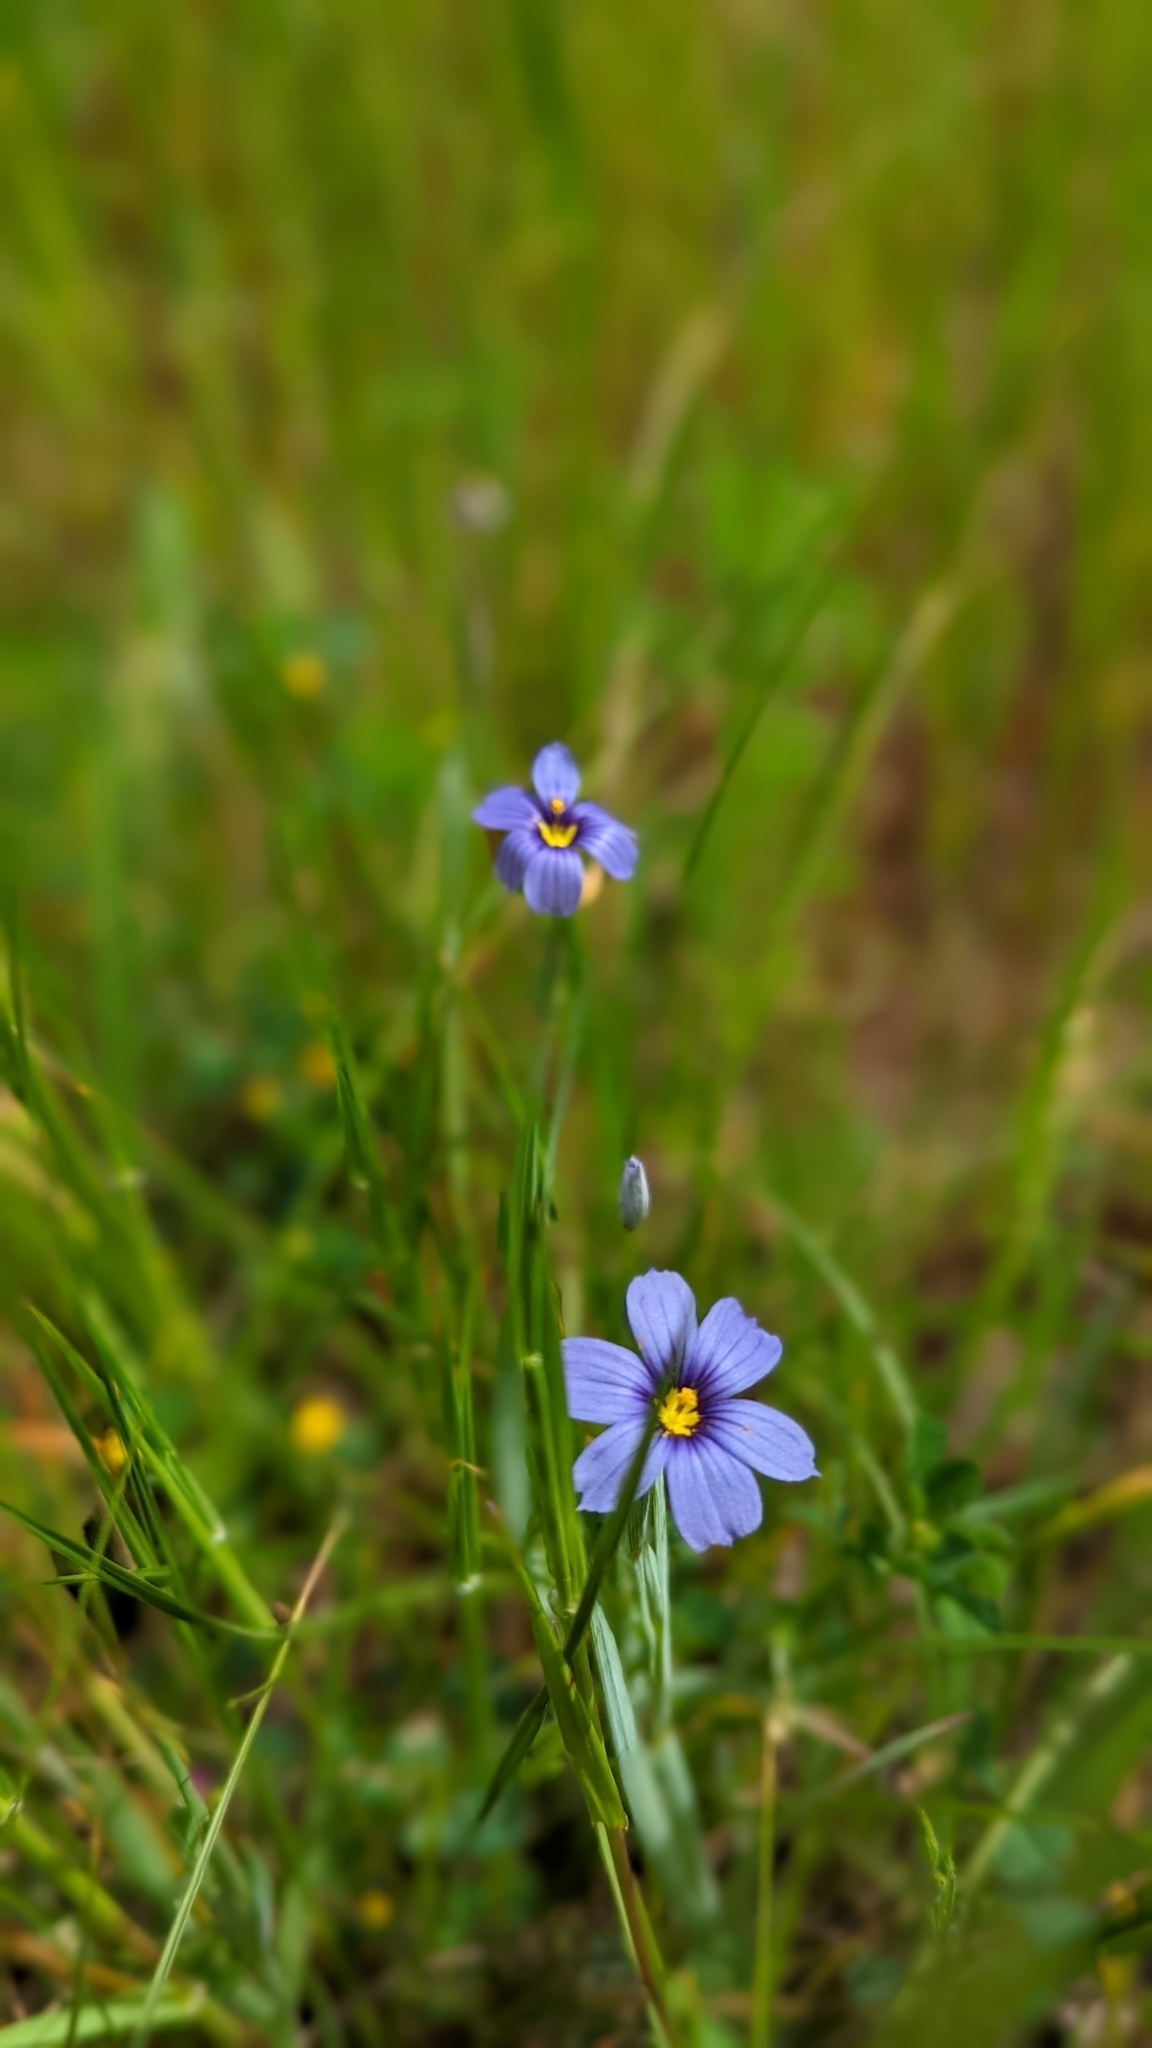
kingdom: Plantae
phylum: Tracheophyta
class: Liliopsida
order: Asparagales
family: Iridaceae
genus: Sisyrinchium
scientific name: Sisyrinchium bellum
